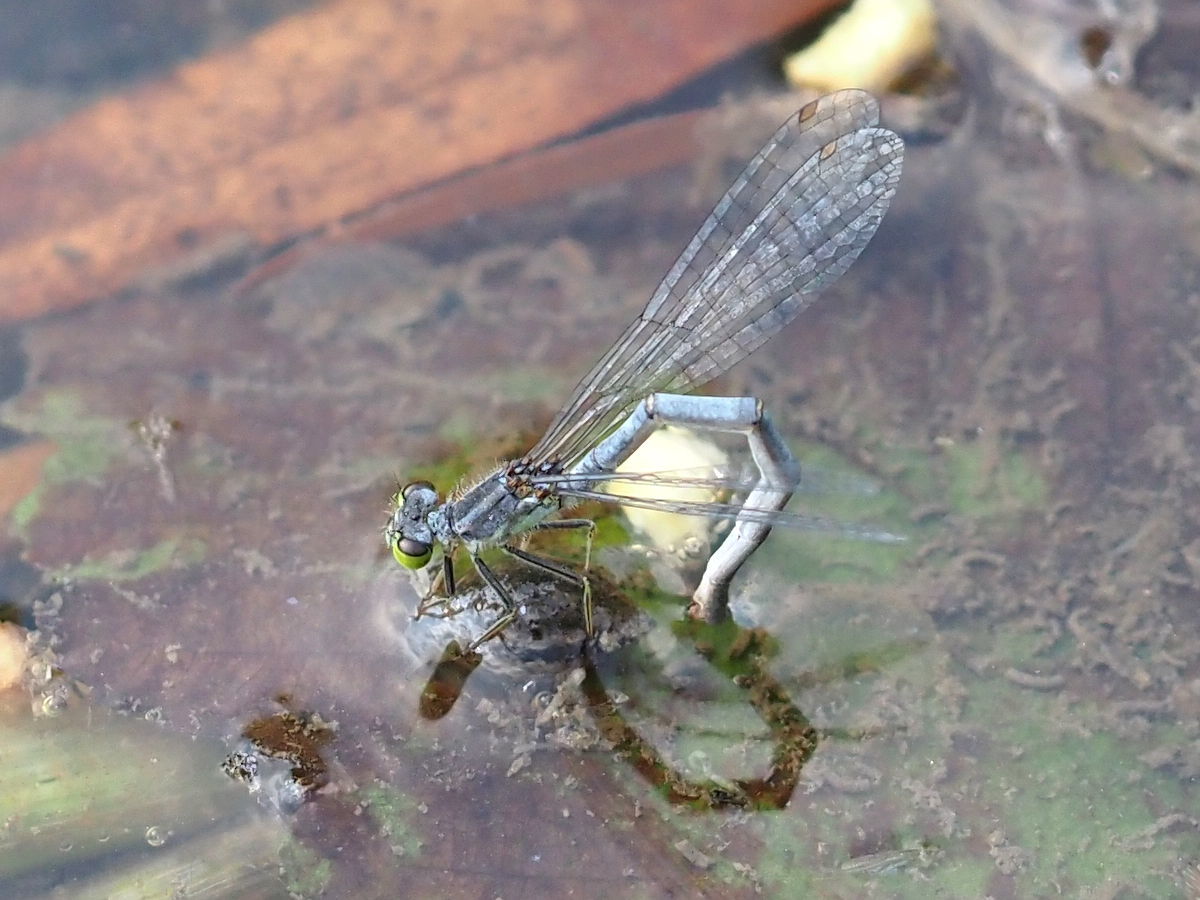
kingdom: Animalia
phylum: Arthropoda
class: Insecta
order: Odonata
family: Coenagrionidae
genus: Ischnura
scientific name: Ischnura verticalis
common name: Eastern forktail
